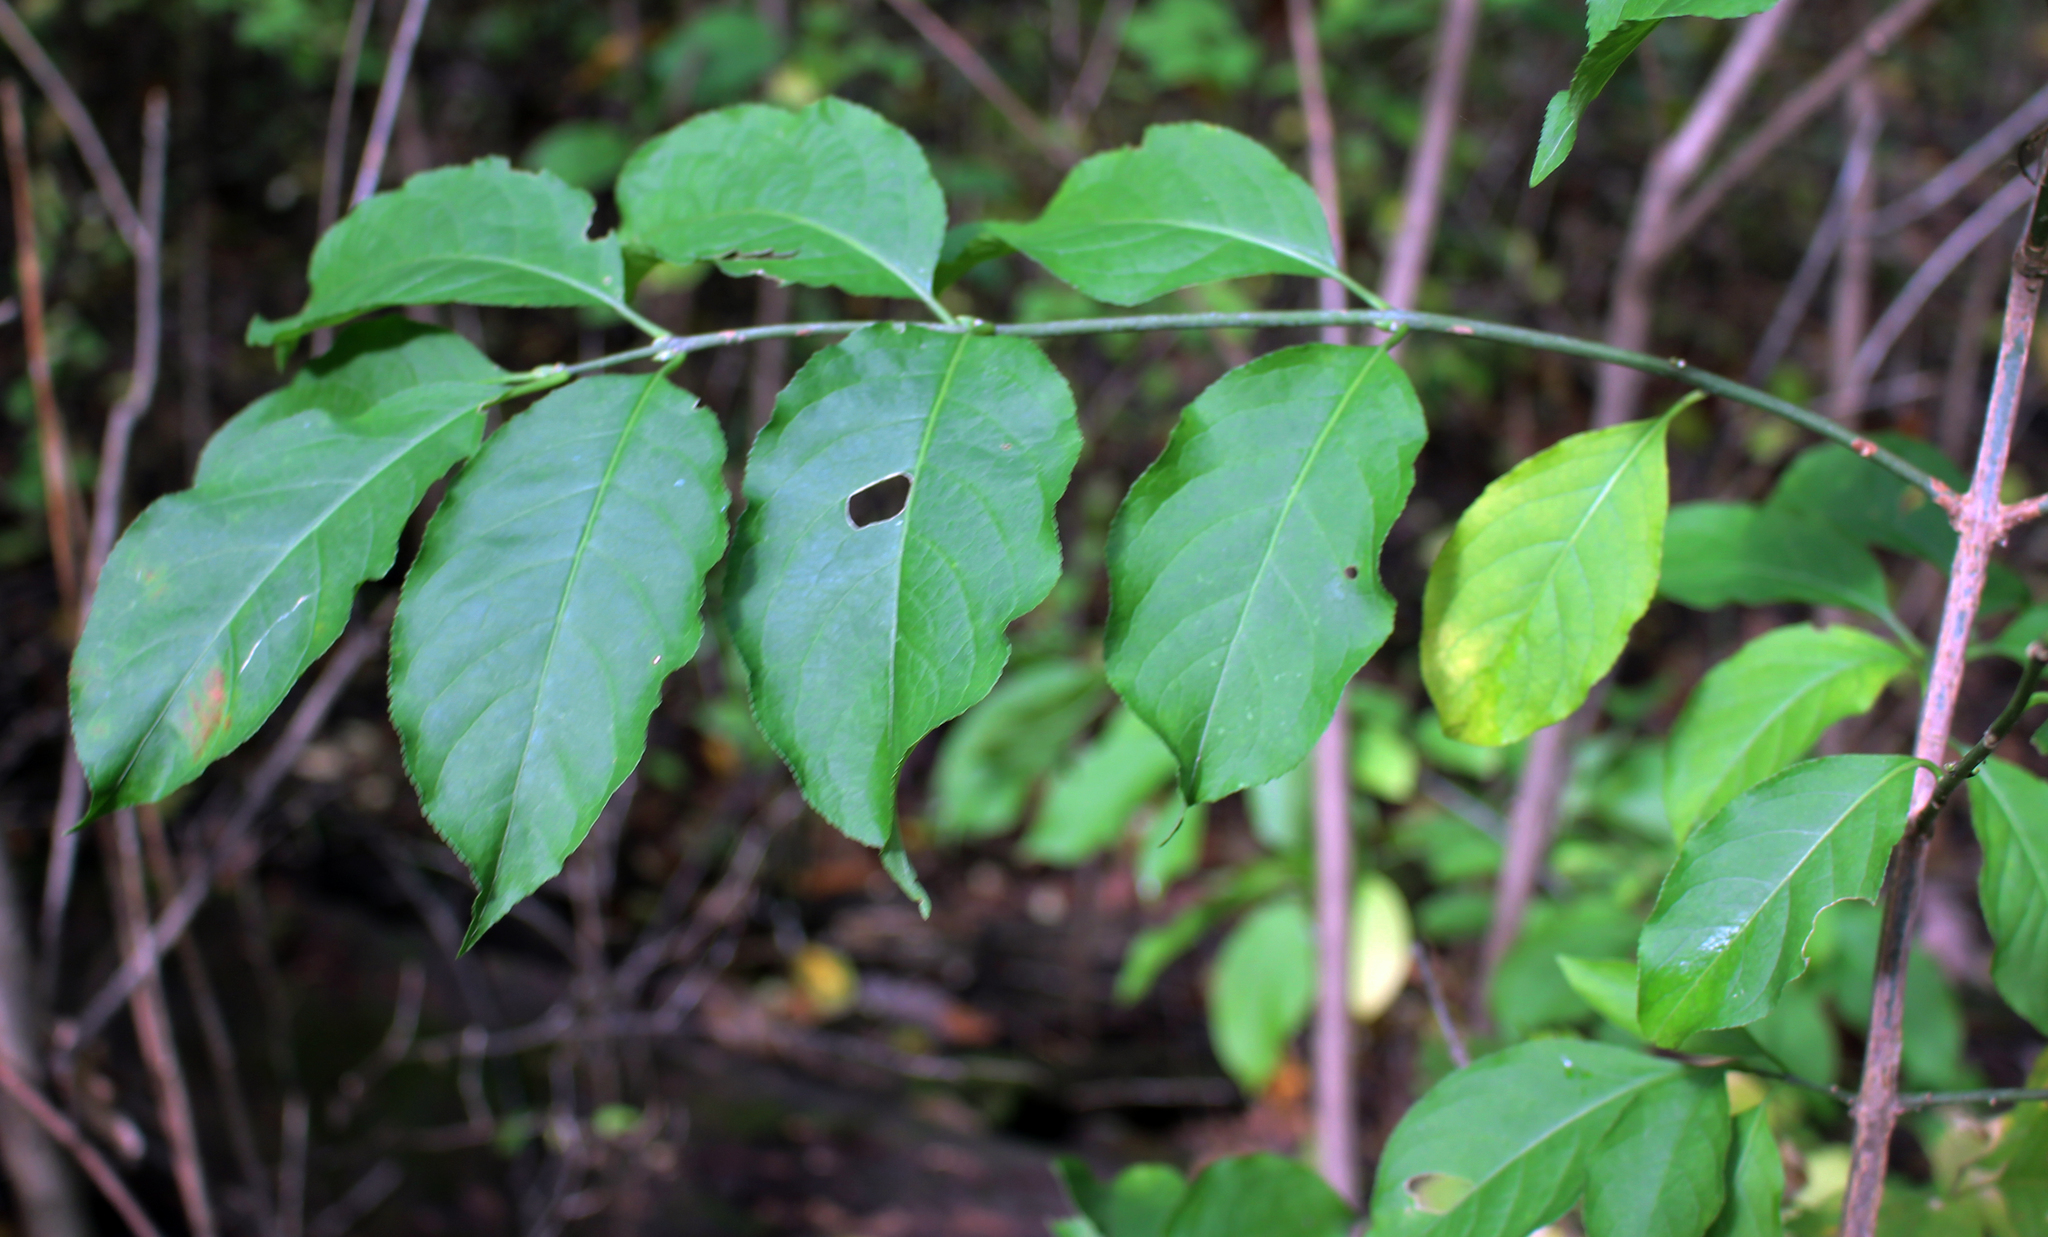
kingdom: Plantae
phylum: Tracheophyta
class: Magnoliopsida
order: Celastrales
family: Celastraceae
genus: Euonymus
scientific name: Euonymus atropurpureus
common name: Eastern wahoo
